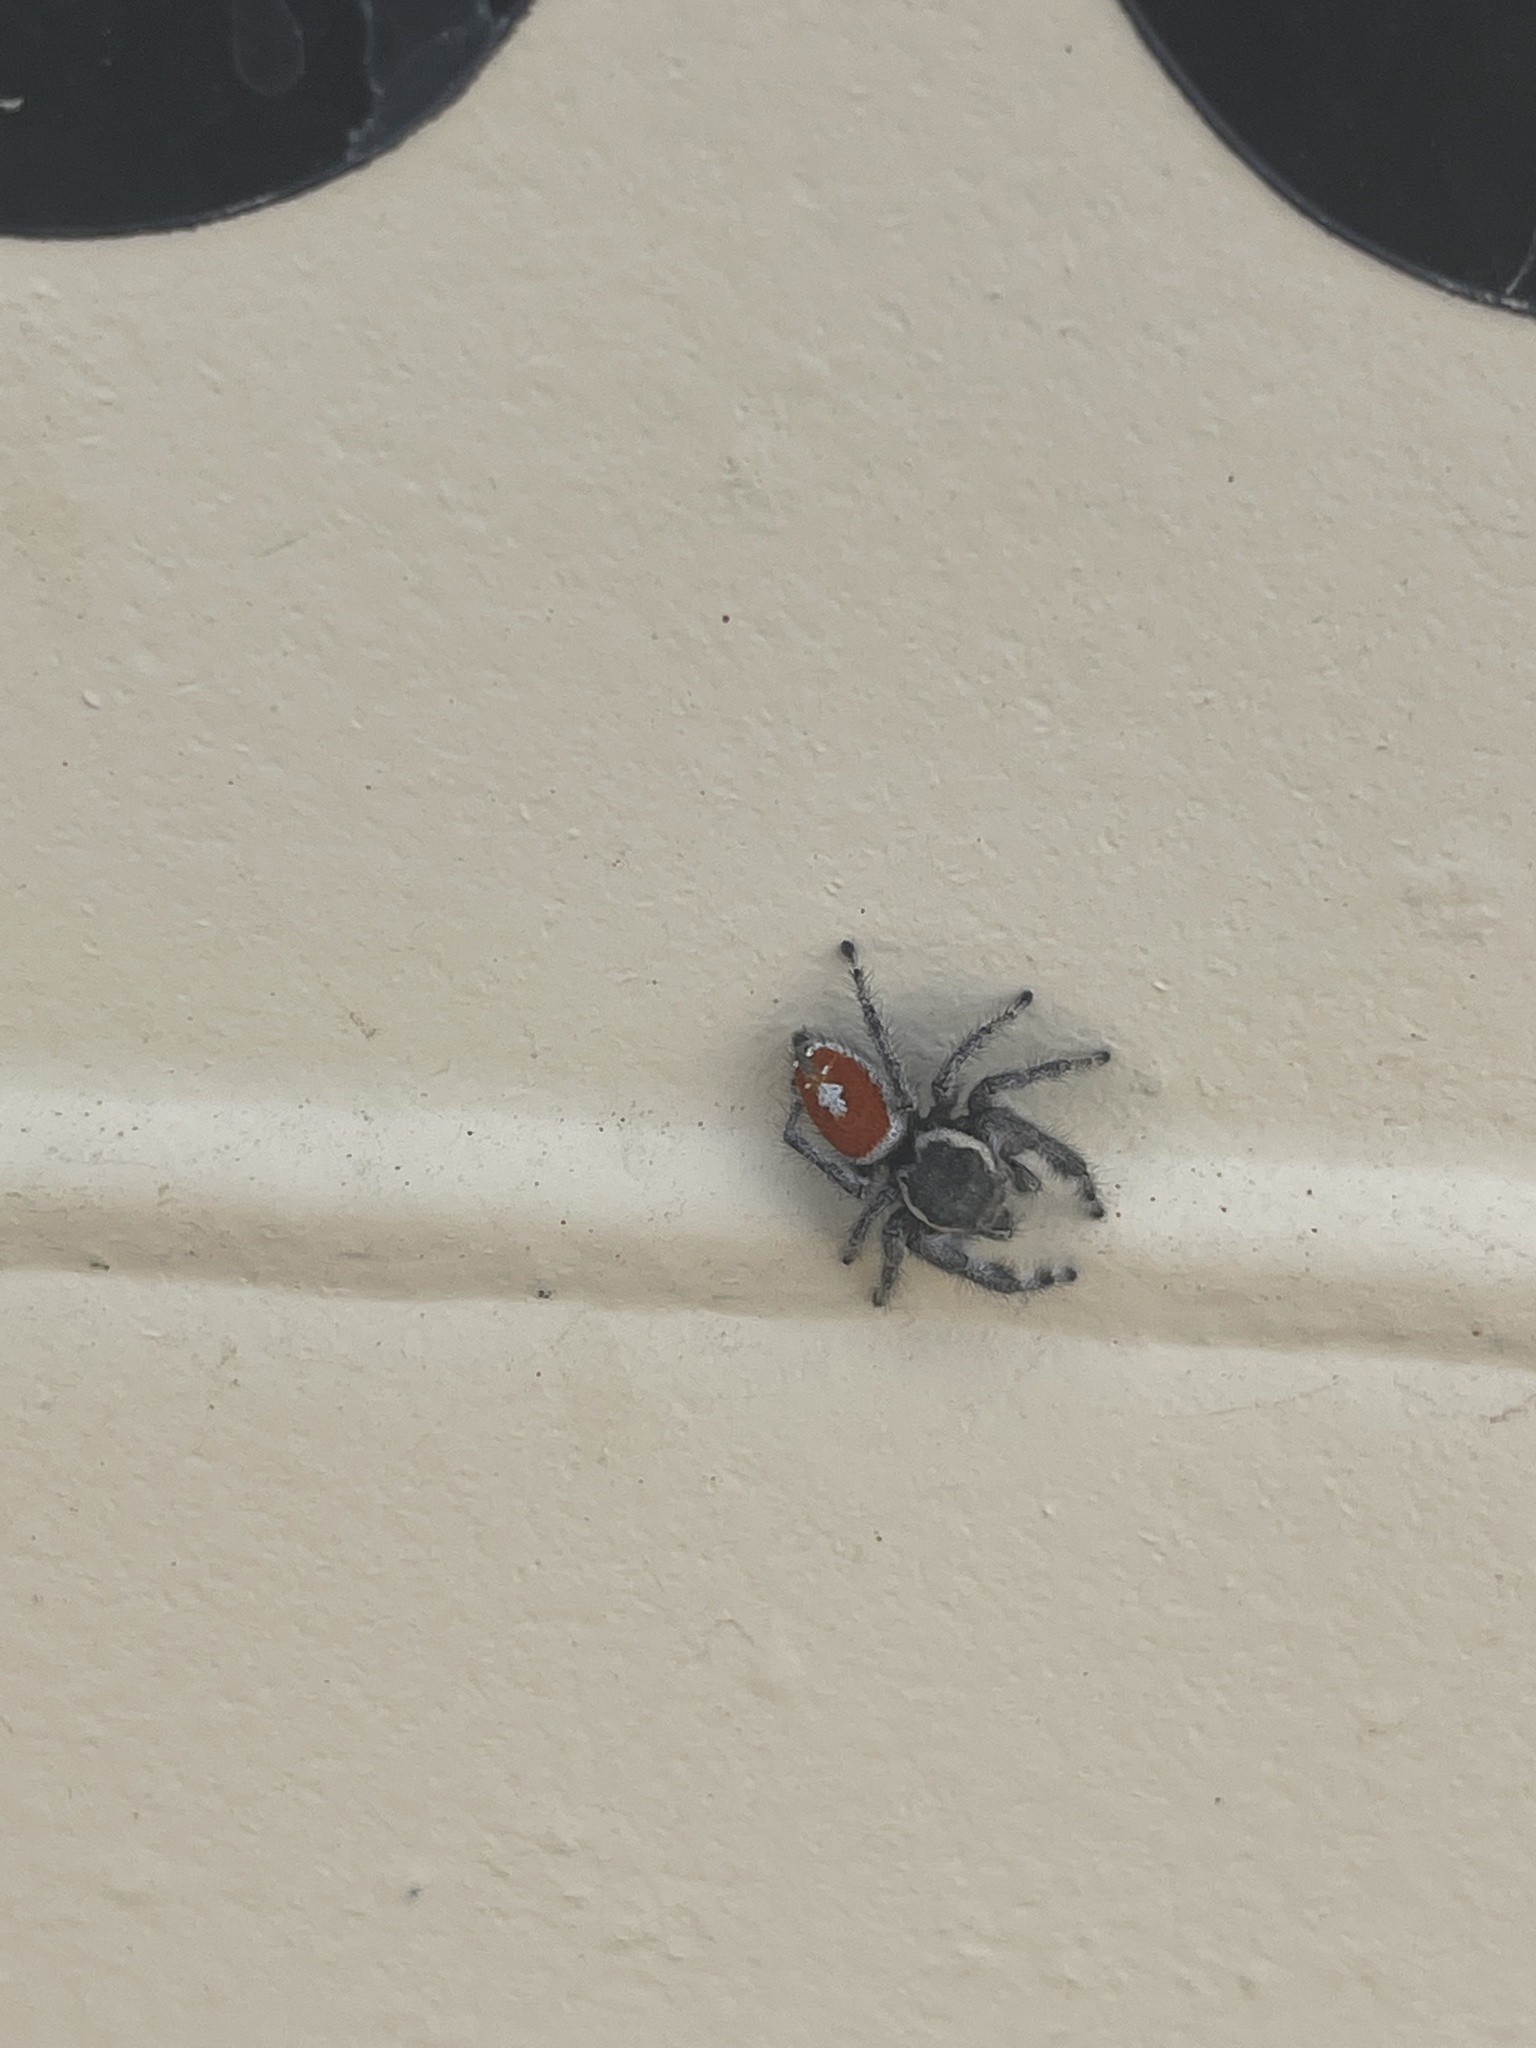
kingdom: Animalia
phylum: Arthropoda
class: Arachnida
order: Araneae
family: Salticidae
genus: Phidippus
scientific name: Phidippus vexans
